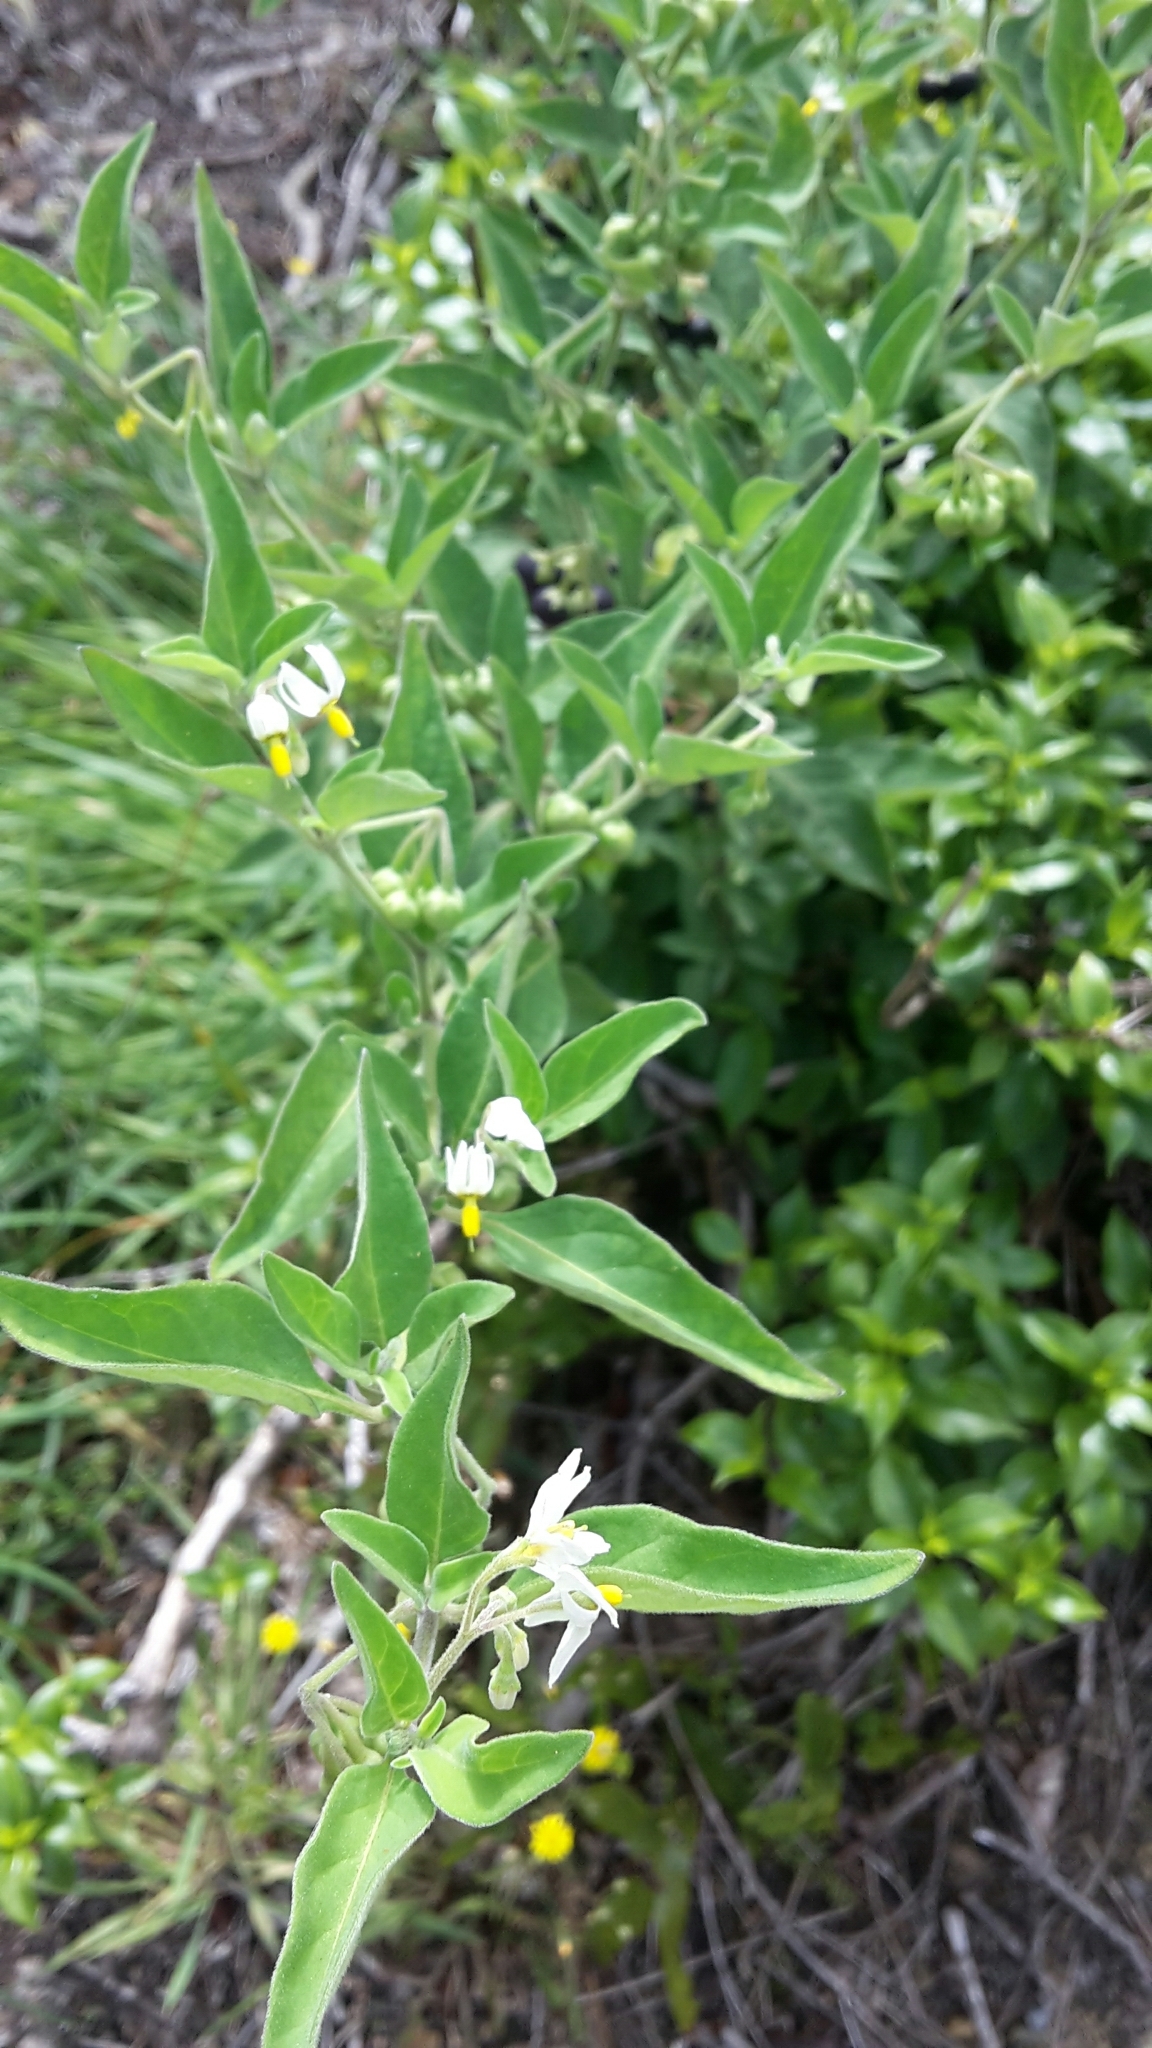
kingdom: Plantae
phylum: Tracheophyta
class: Magnoliopsida
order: Solanales
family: Solanaceae
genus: Solanum
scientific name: Solanum chenopodioides
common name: Tall nightshade
